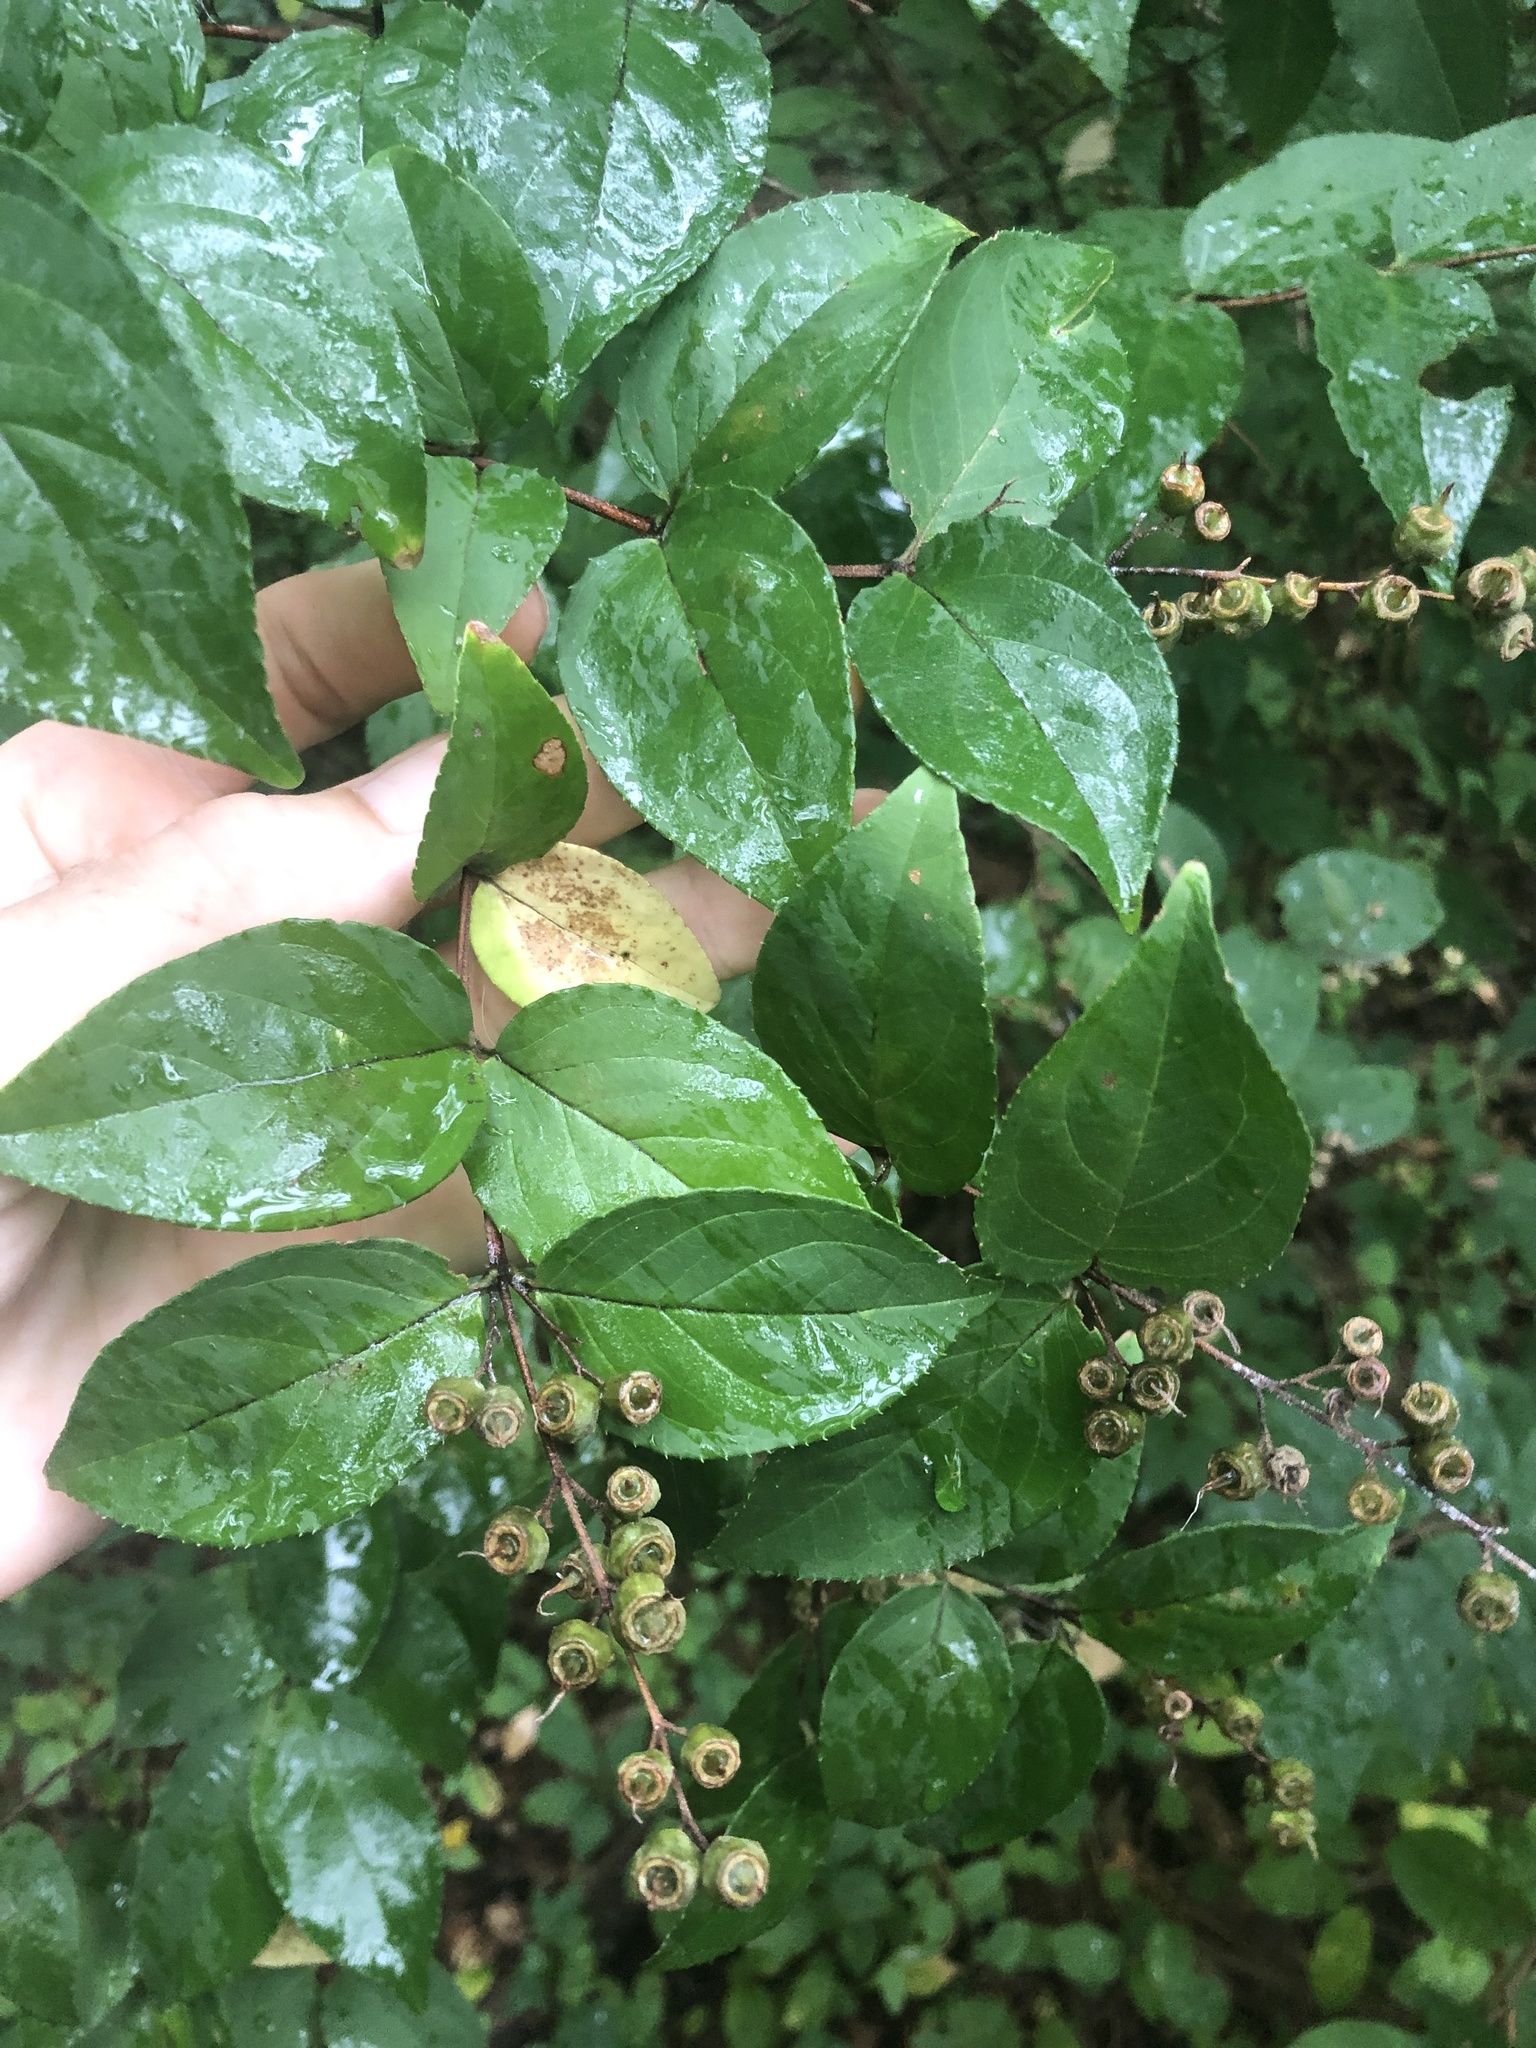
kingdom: Plantae
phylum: Tracheophyta
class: Magnoliopsida
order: Cornales
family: Hydrangeaceae
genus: Deutzia
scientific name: Deutzia crenata
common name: Deutzia
